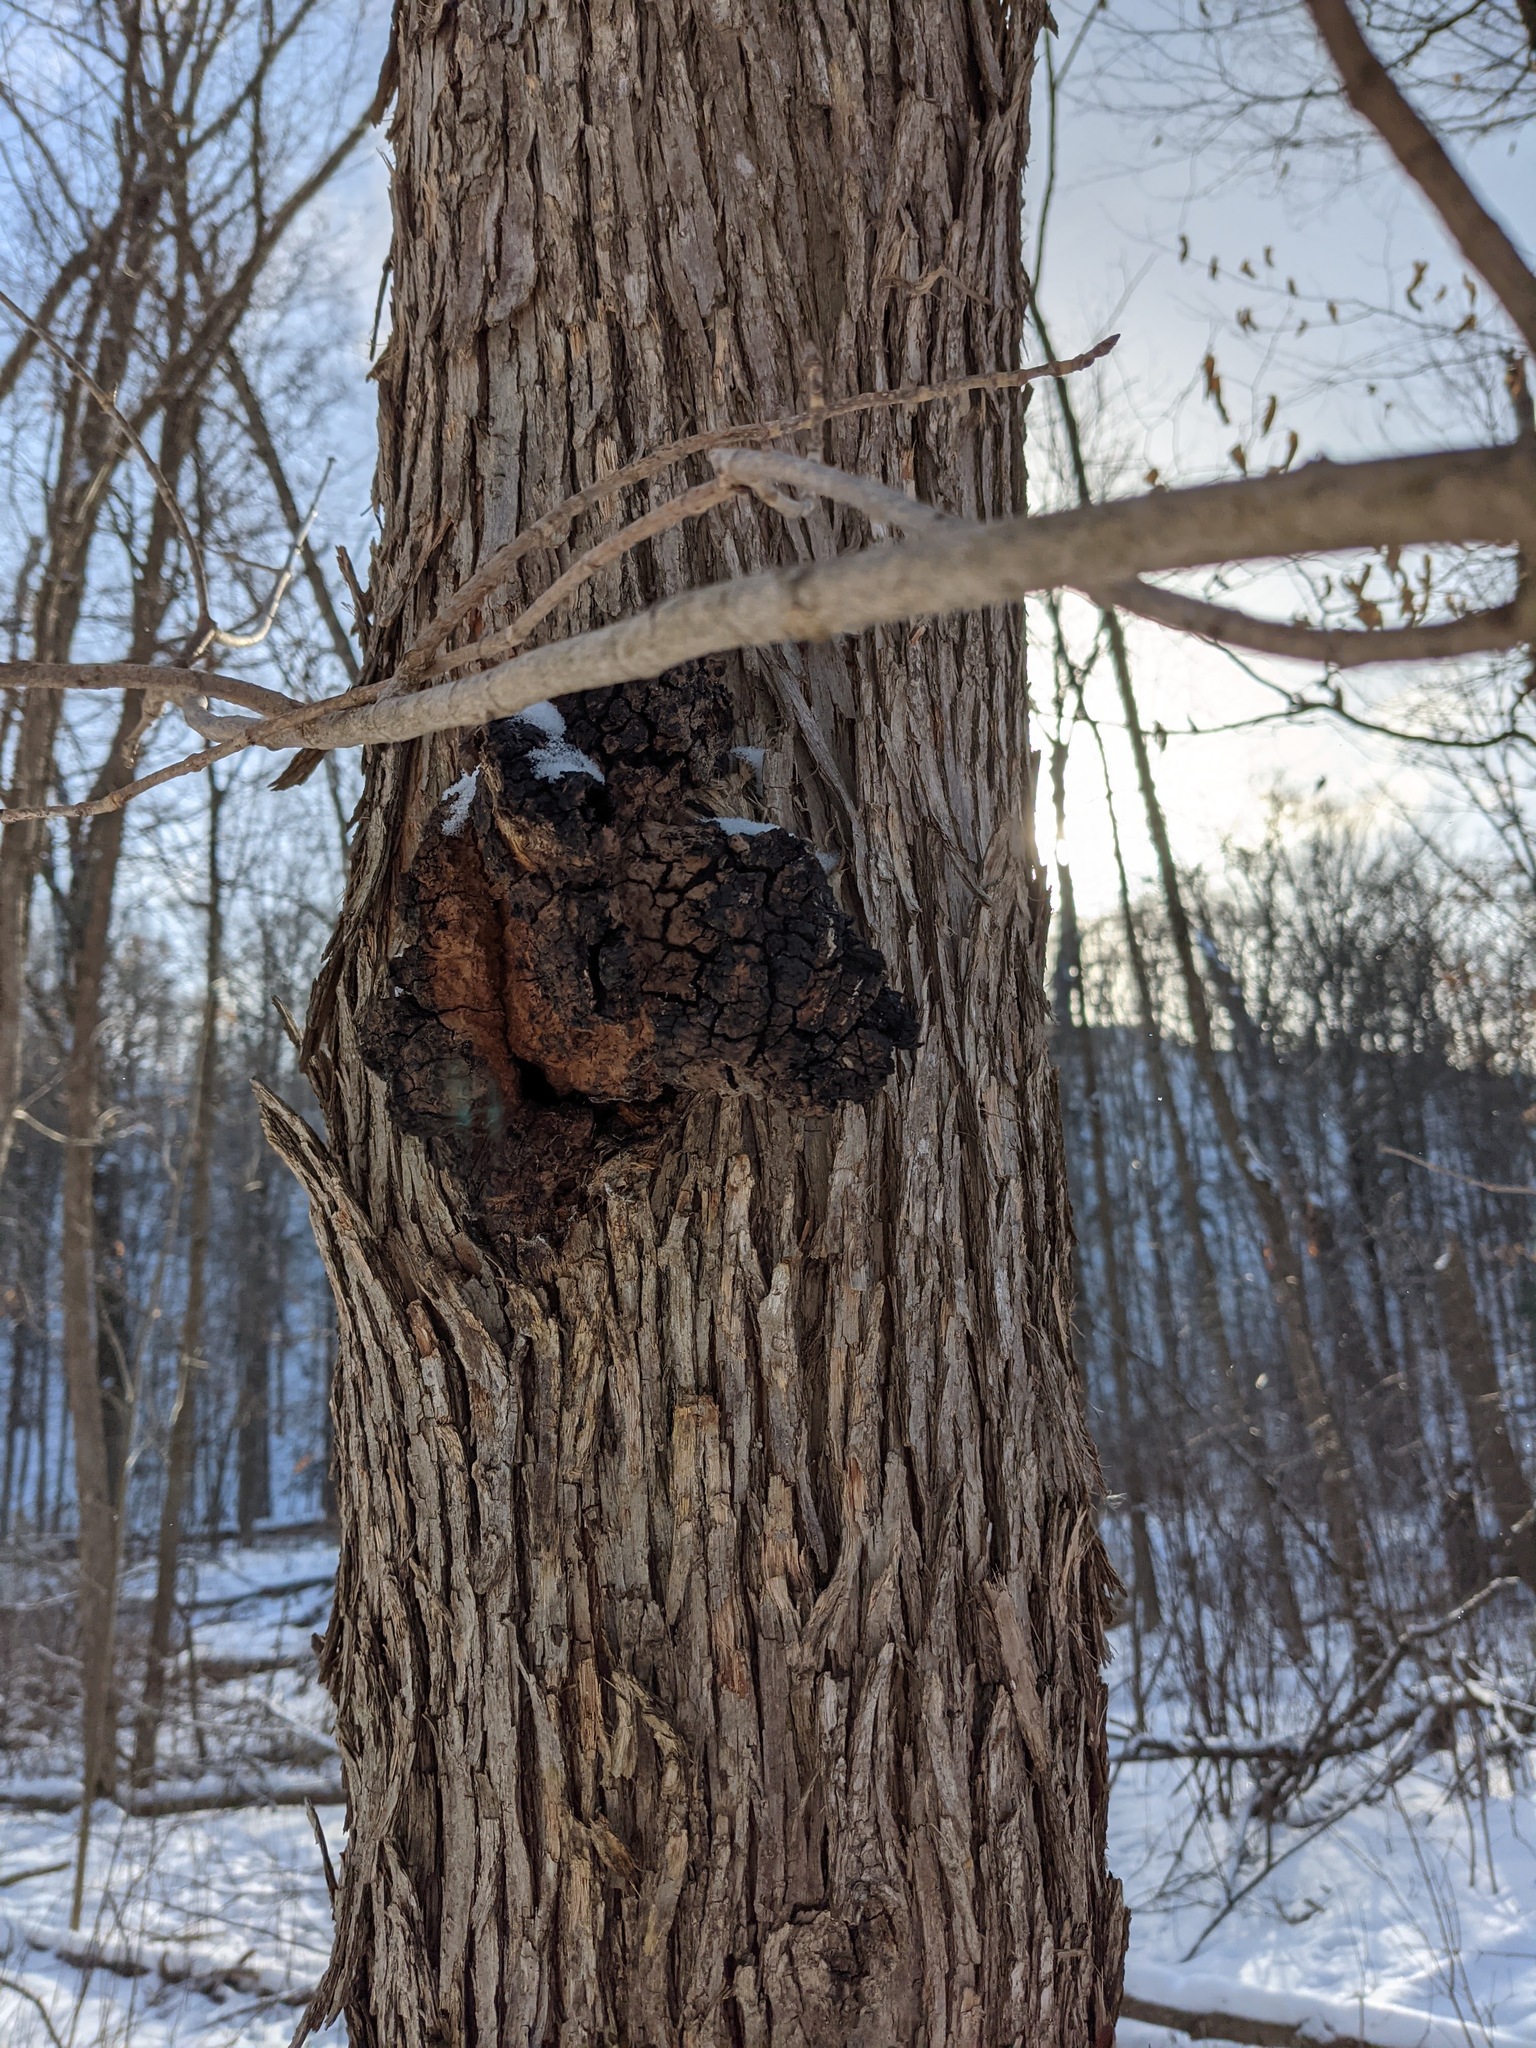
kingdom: Fungi
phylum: Basidiomycota
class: Agaricomycetes
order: Hymenochaetales
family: Hymenochaetaceae
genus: Inonotus
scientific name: Inonotus obliquus
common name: Chaga
